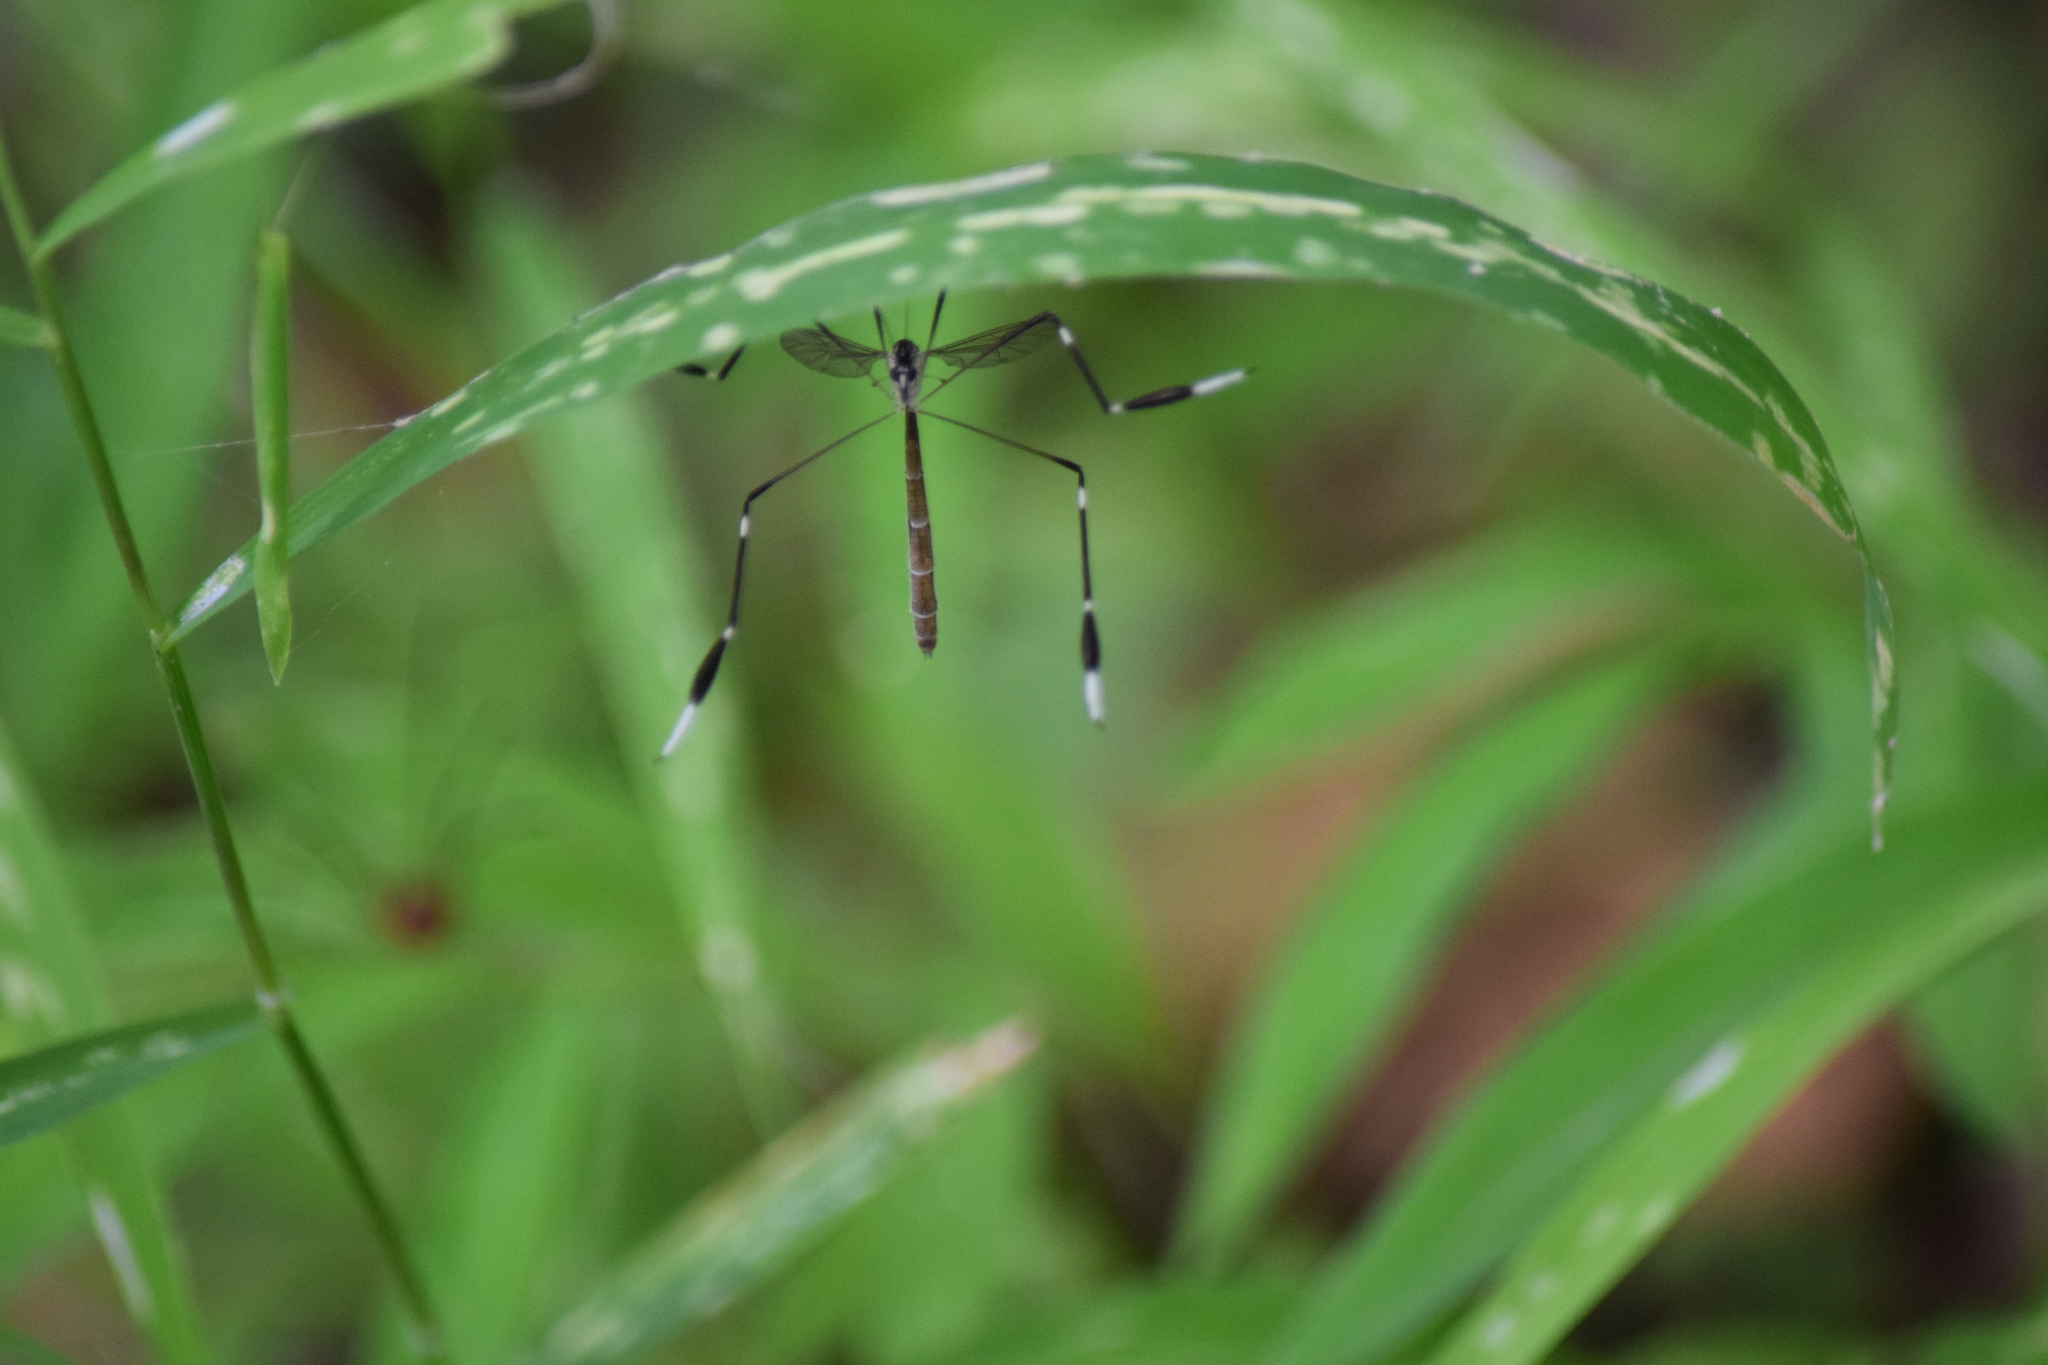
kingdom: Animalia
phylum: Arthropoda
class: Insecta
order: Diptera
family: Ptychopteridae
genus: Bittacomorpha
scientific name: Bittacomorpha clavipes
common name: Eastern phantom crane fly
